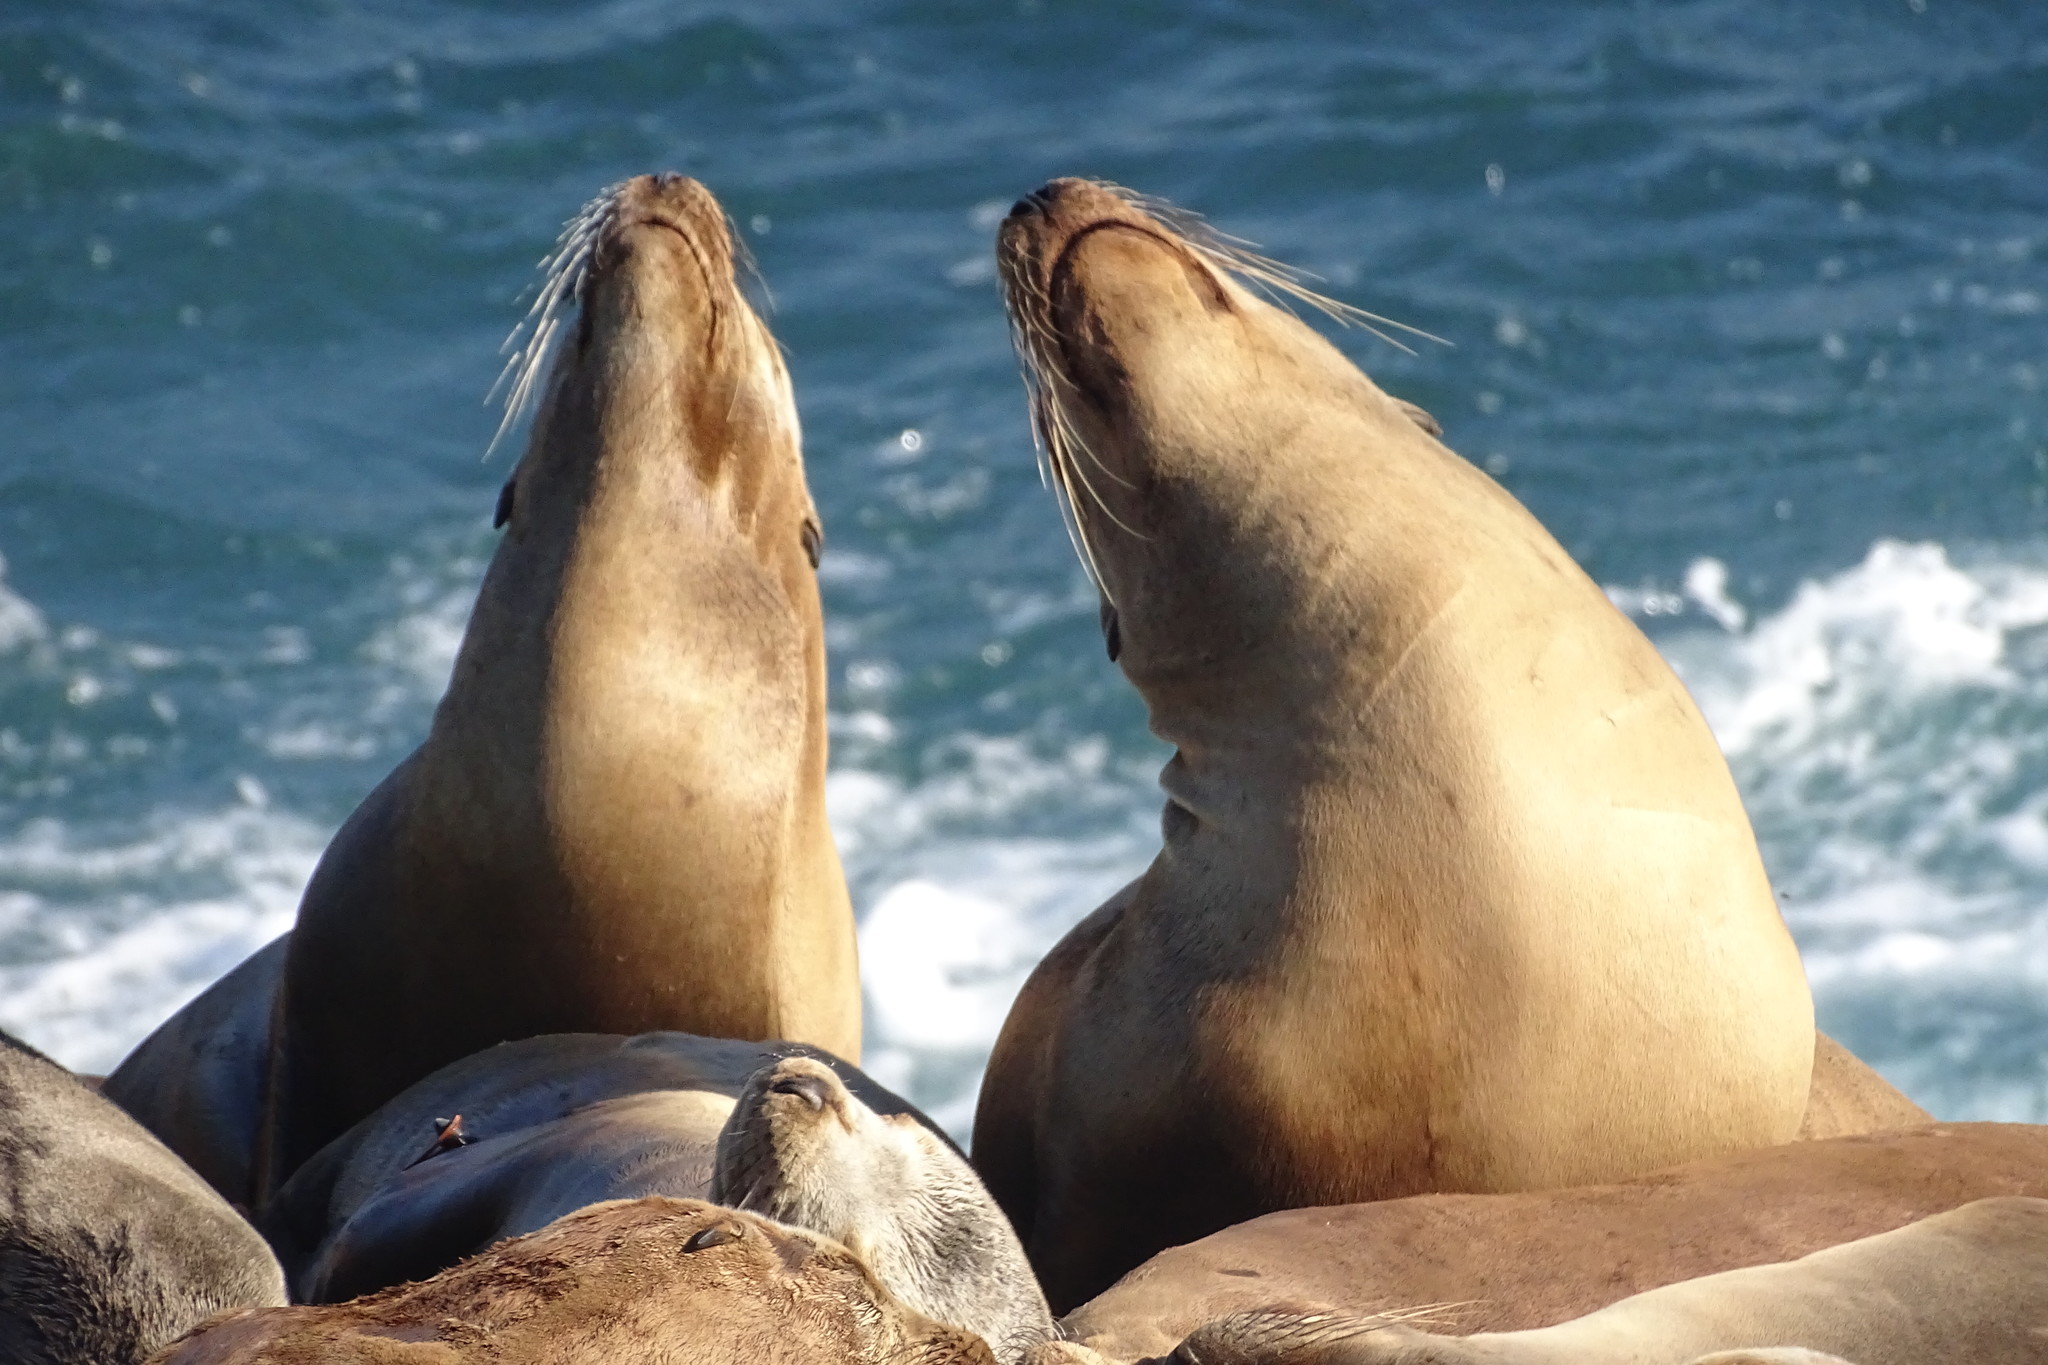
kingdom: Animalia
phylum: Chordata
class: Mammalia
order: Carnivora
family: Otariidae
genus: Zalophus
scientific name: Zalophus californianus
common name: California sea lion
